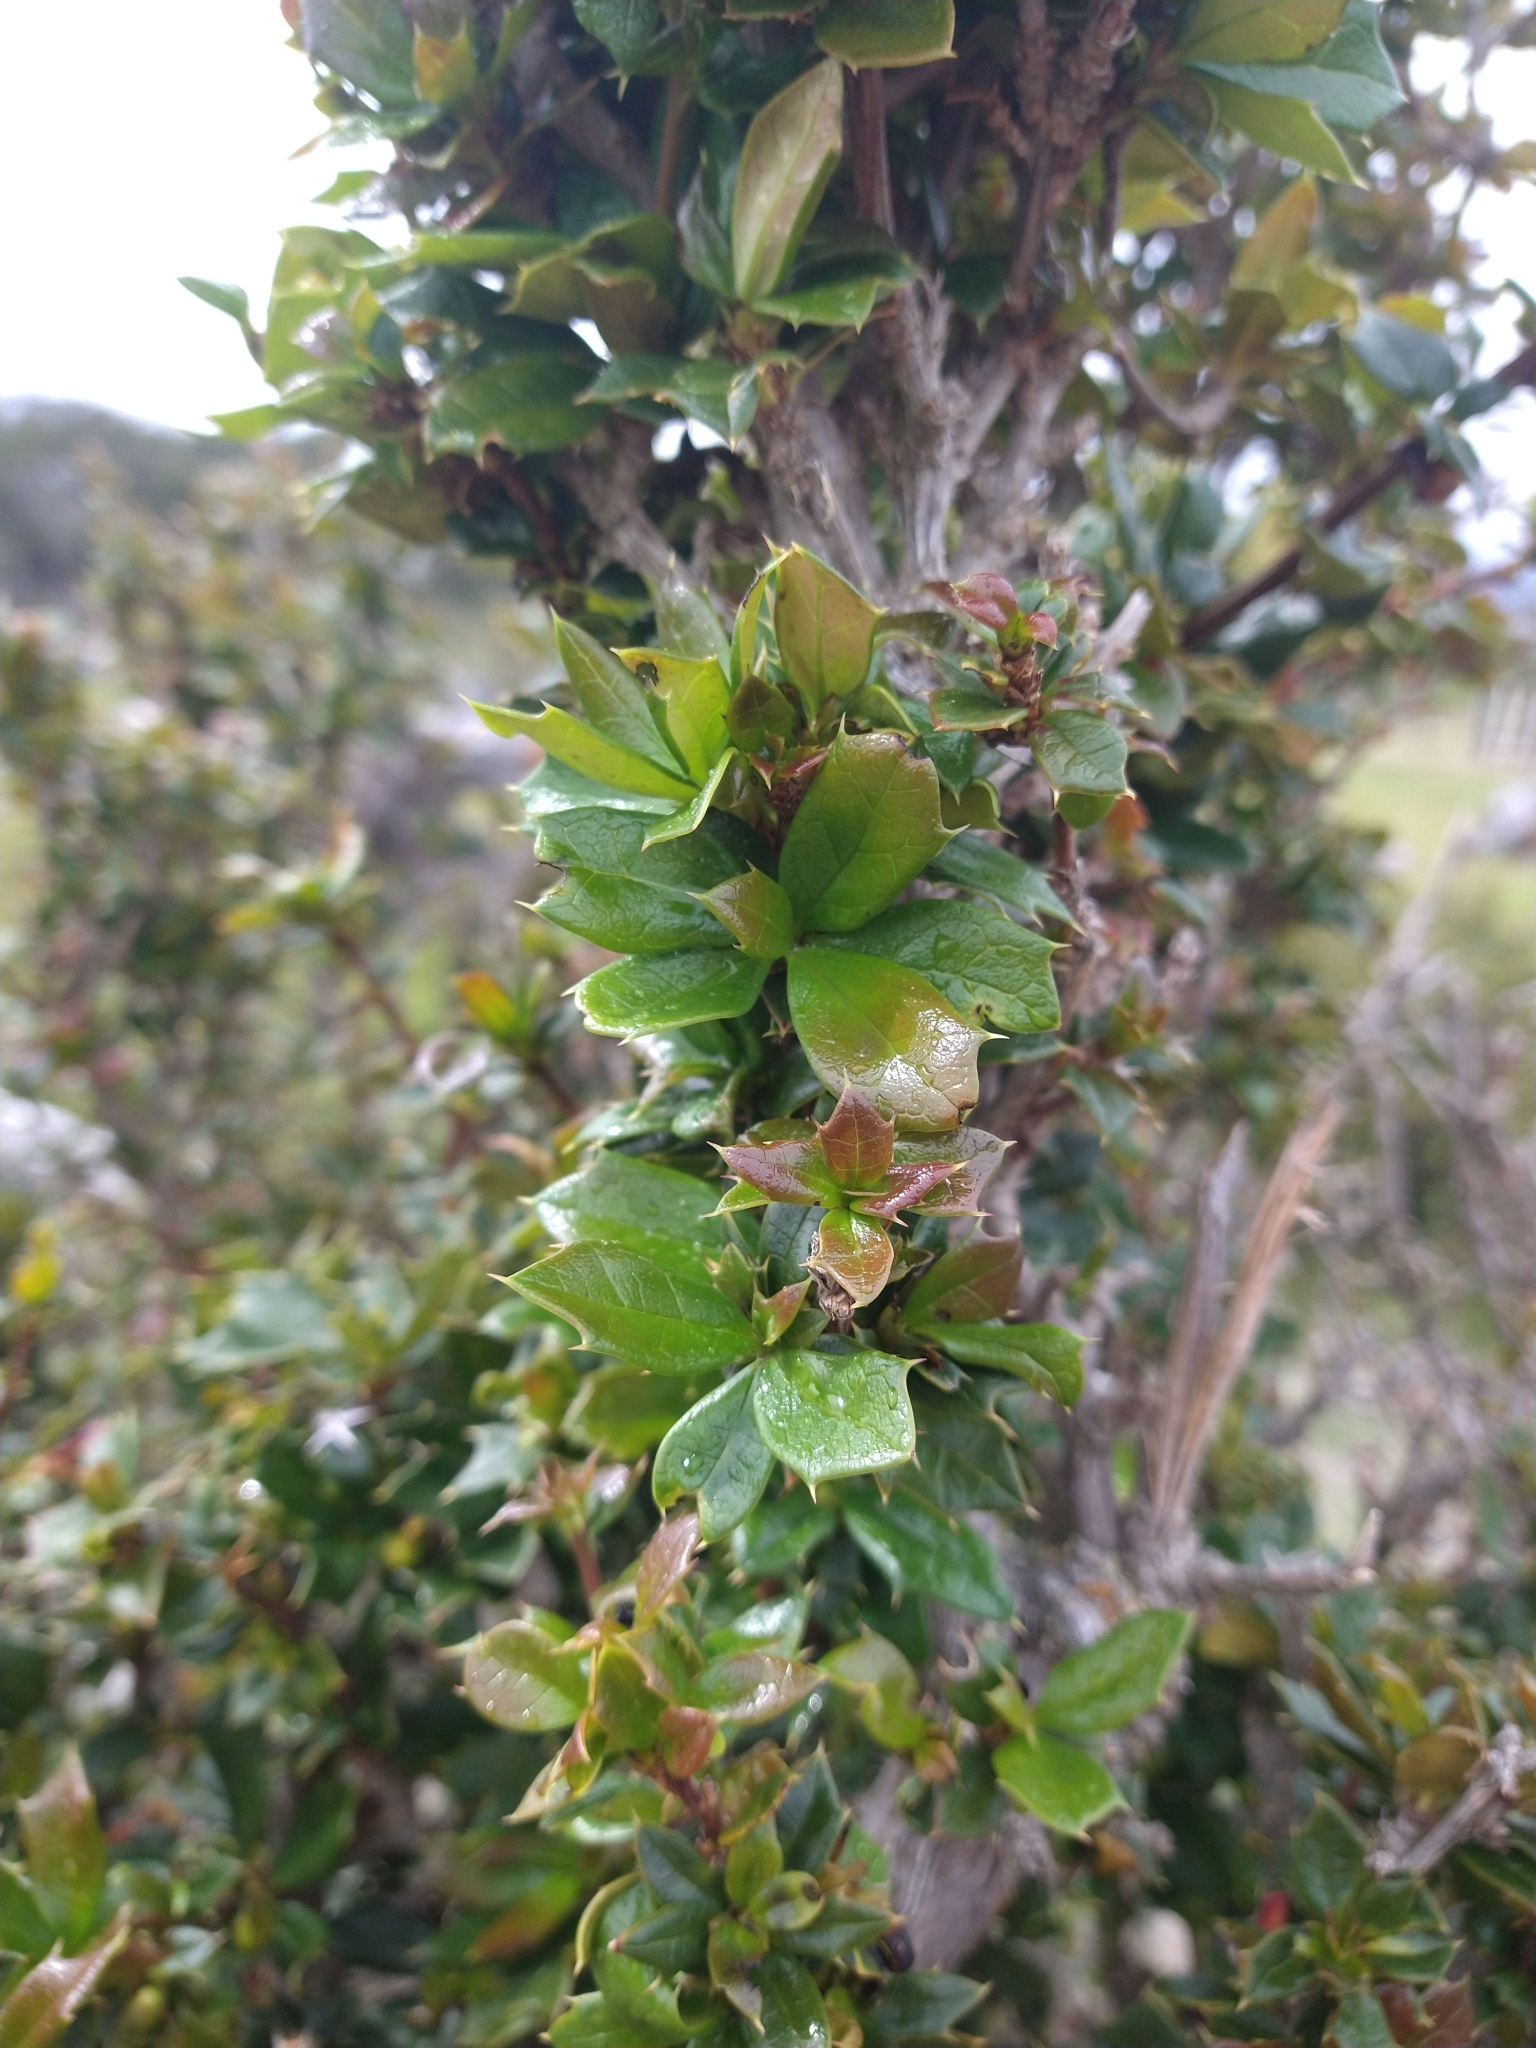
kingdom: Plantae
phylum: Tracheophyta
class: Magnoliopsida
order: Ranunculales
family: Berberidaceae
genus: Berberis
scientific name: Berberis ilicifolia
